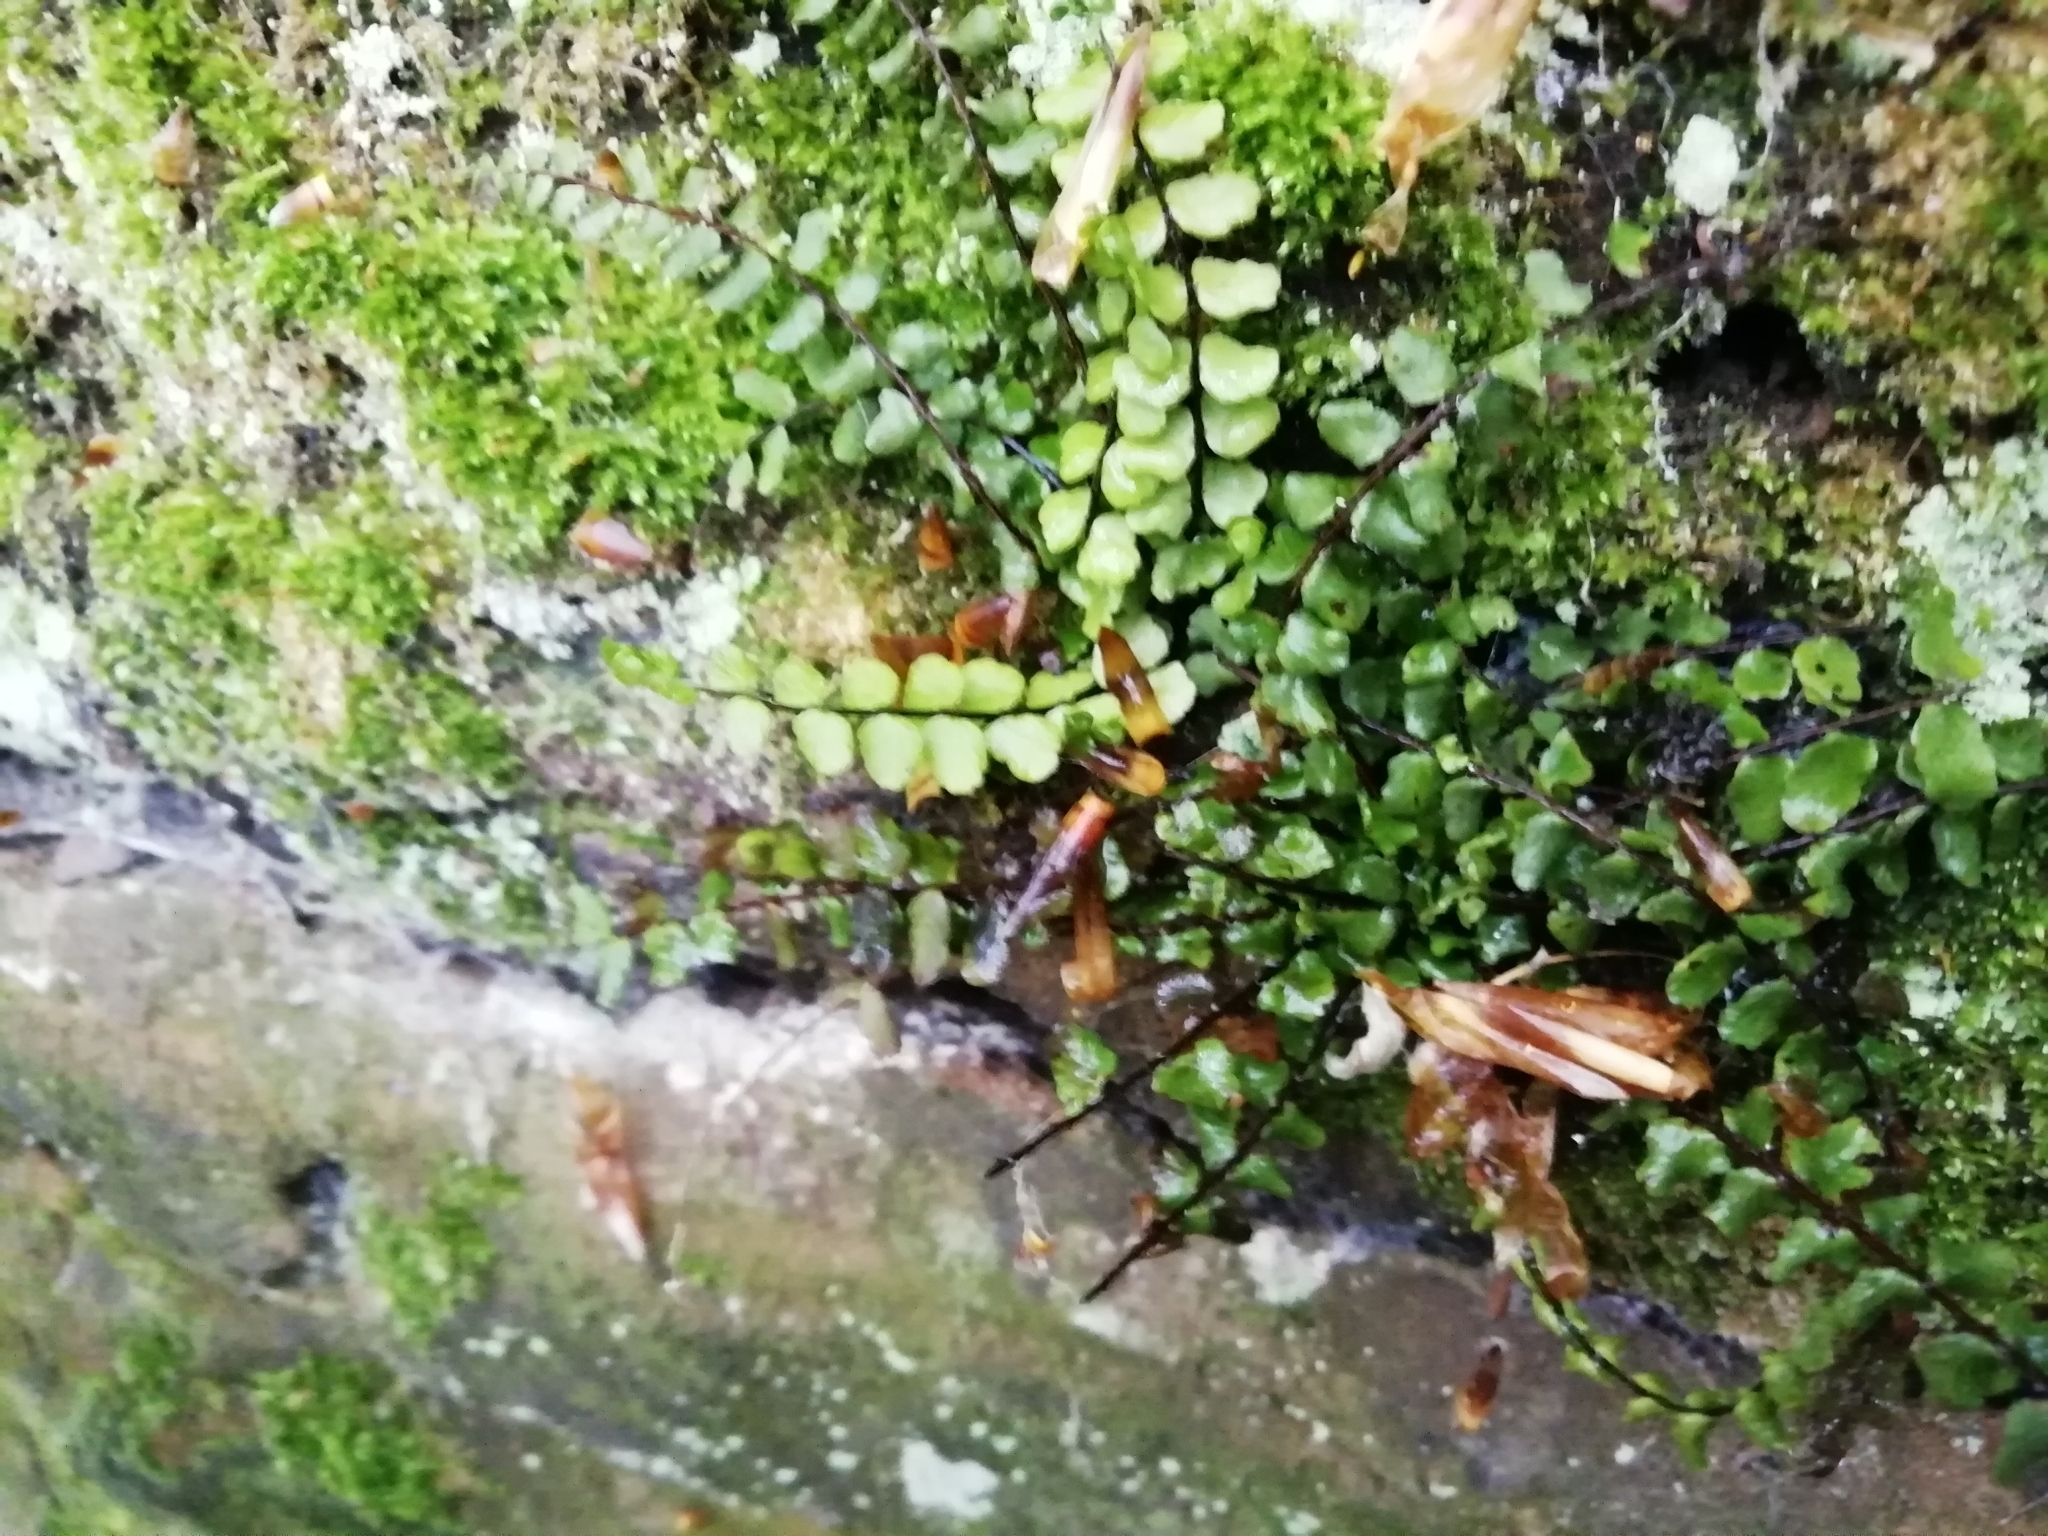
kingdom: Plantae
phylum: Tracheophyta
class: Polypodiopsida
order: Polypodiales
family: Aspleniaceae
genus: Asplenium
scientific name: Asplenium trichomanes
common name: Maidenhair spleenwort
